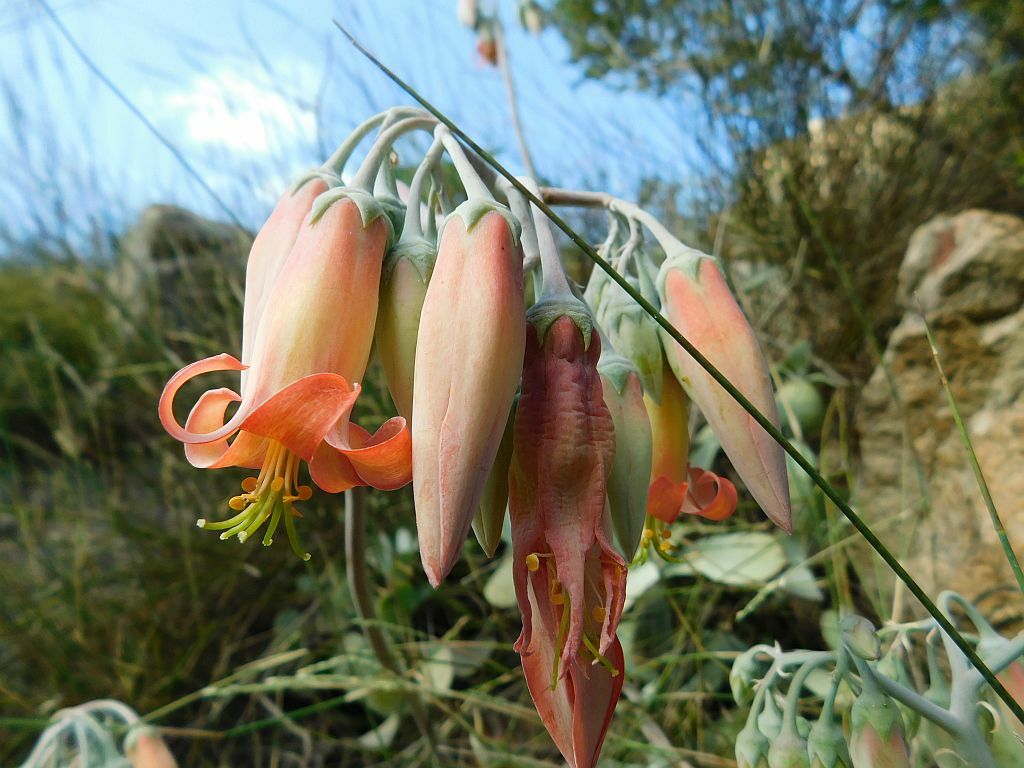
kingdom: Plantae
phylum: Tracheophyta
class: Magnoliopsida
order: Saxifragales
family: Crassulaceae
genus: Cotyledon
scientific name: Cotyledon orbiculata
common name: Pig's ear
